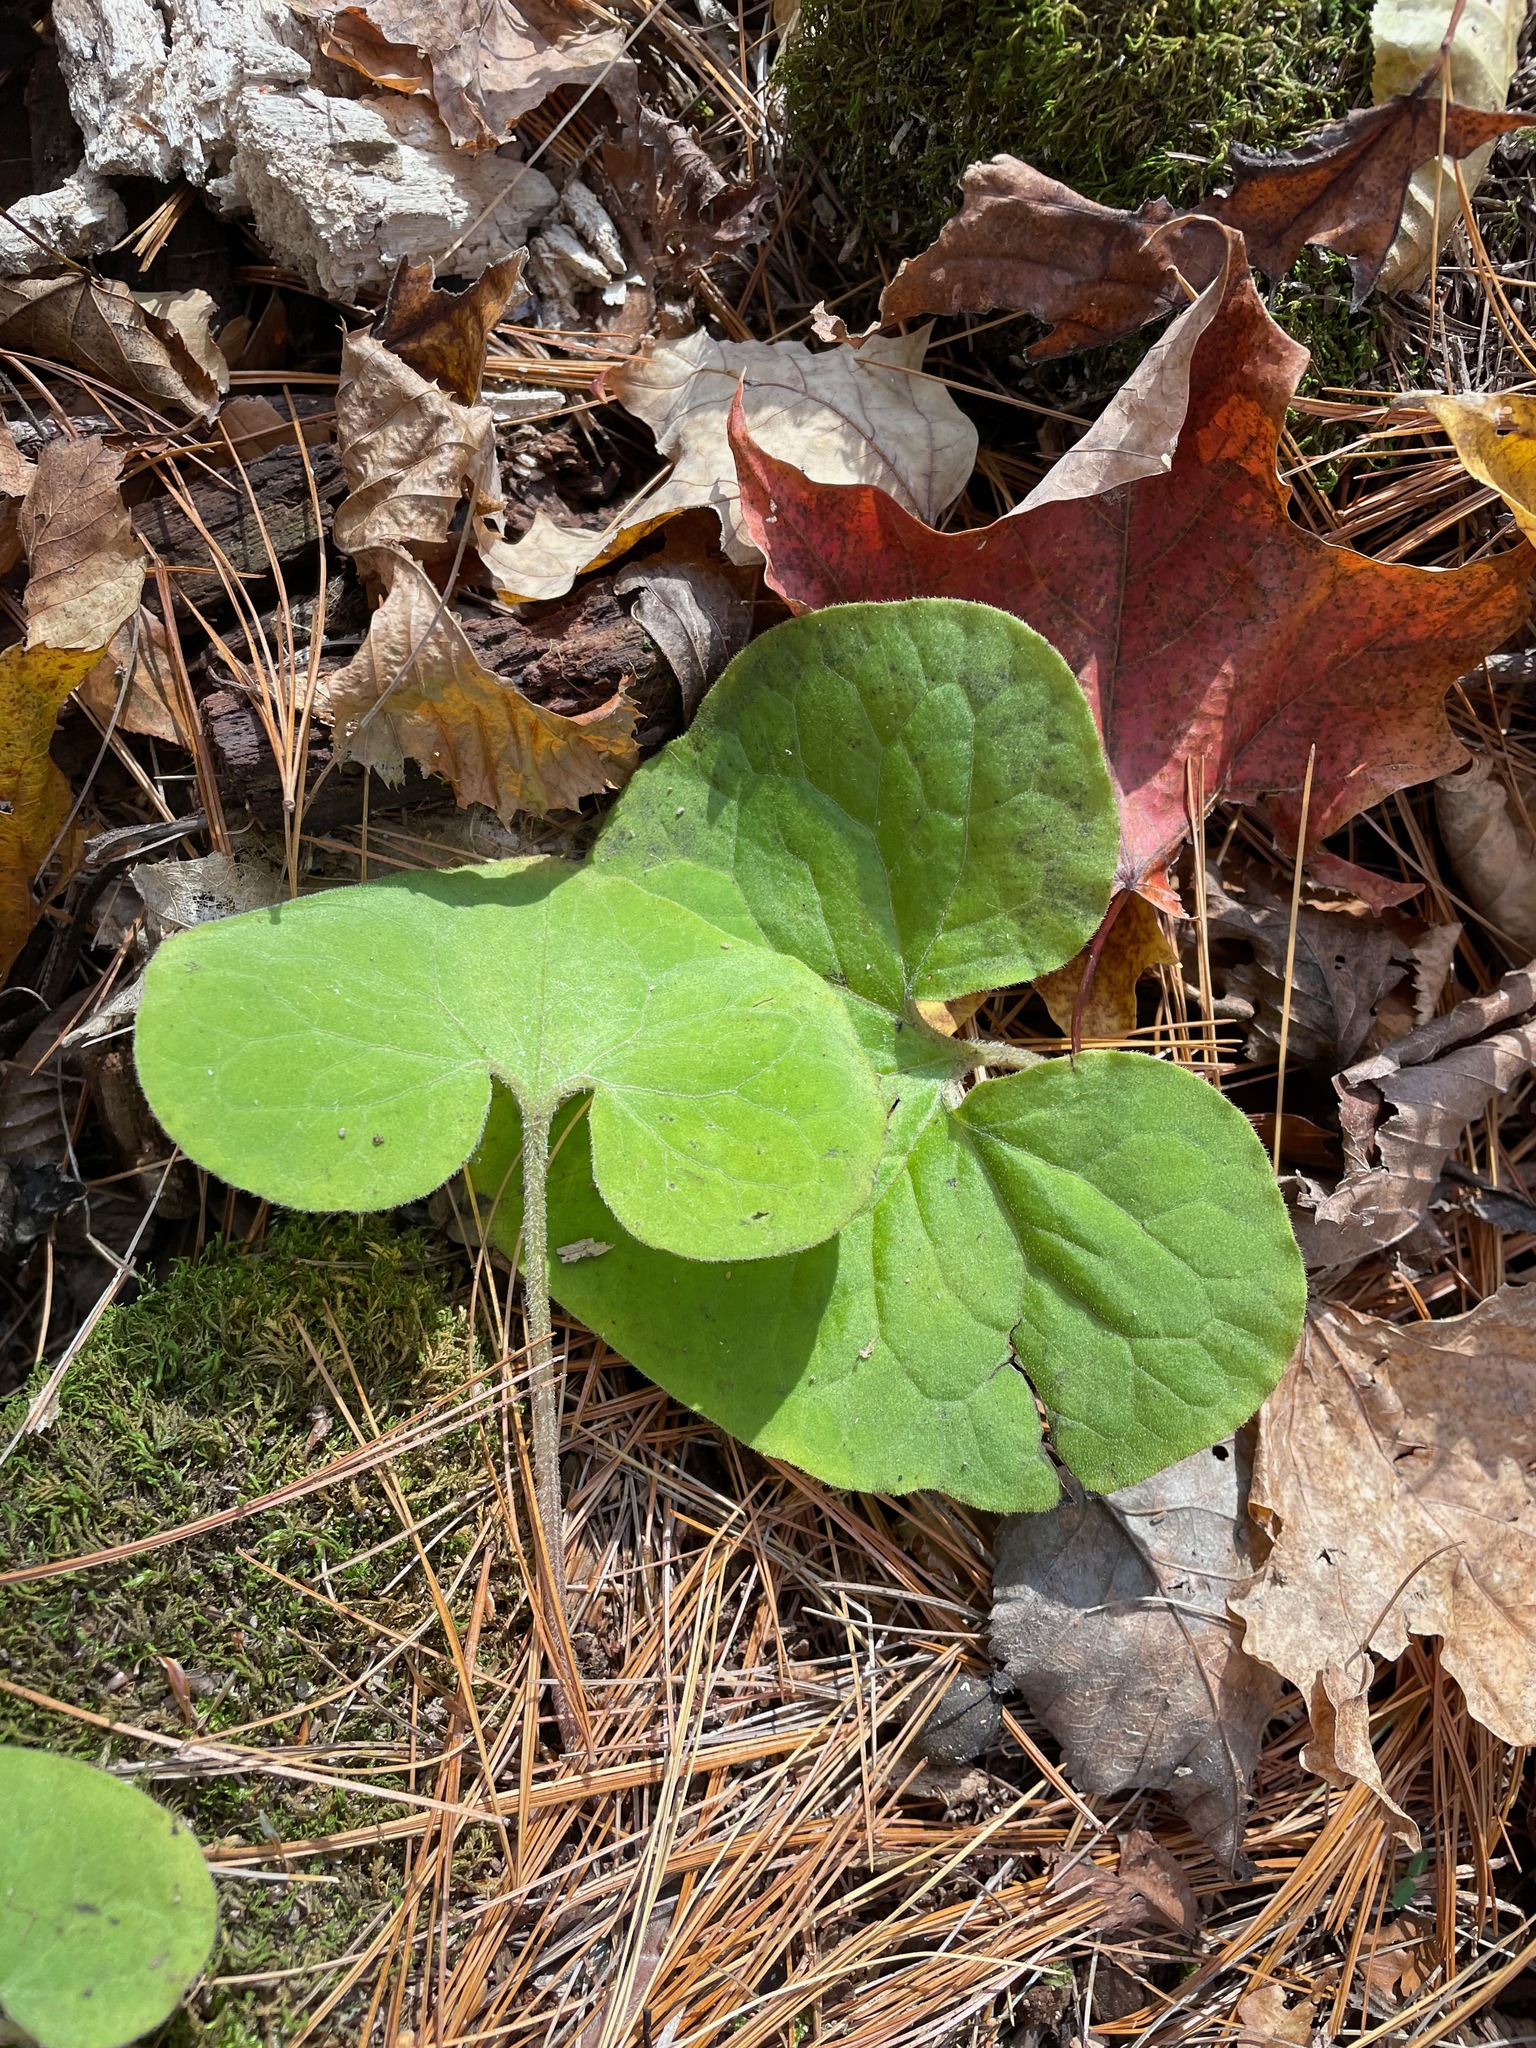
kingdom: Plantae
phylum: Tracheophyta
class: Magnoliopsida
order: Piperales
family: Aristolochiaceae
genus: Asarum
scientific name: Asarum canadense
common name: Wild ginger
